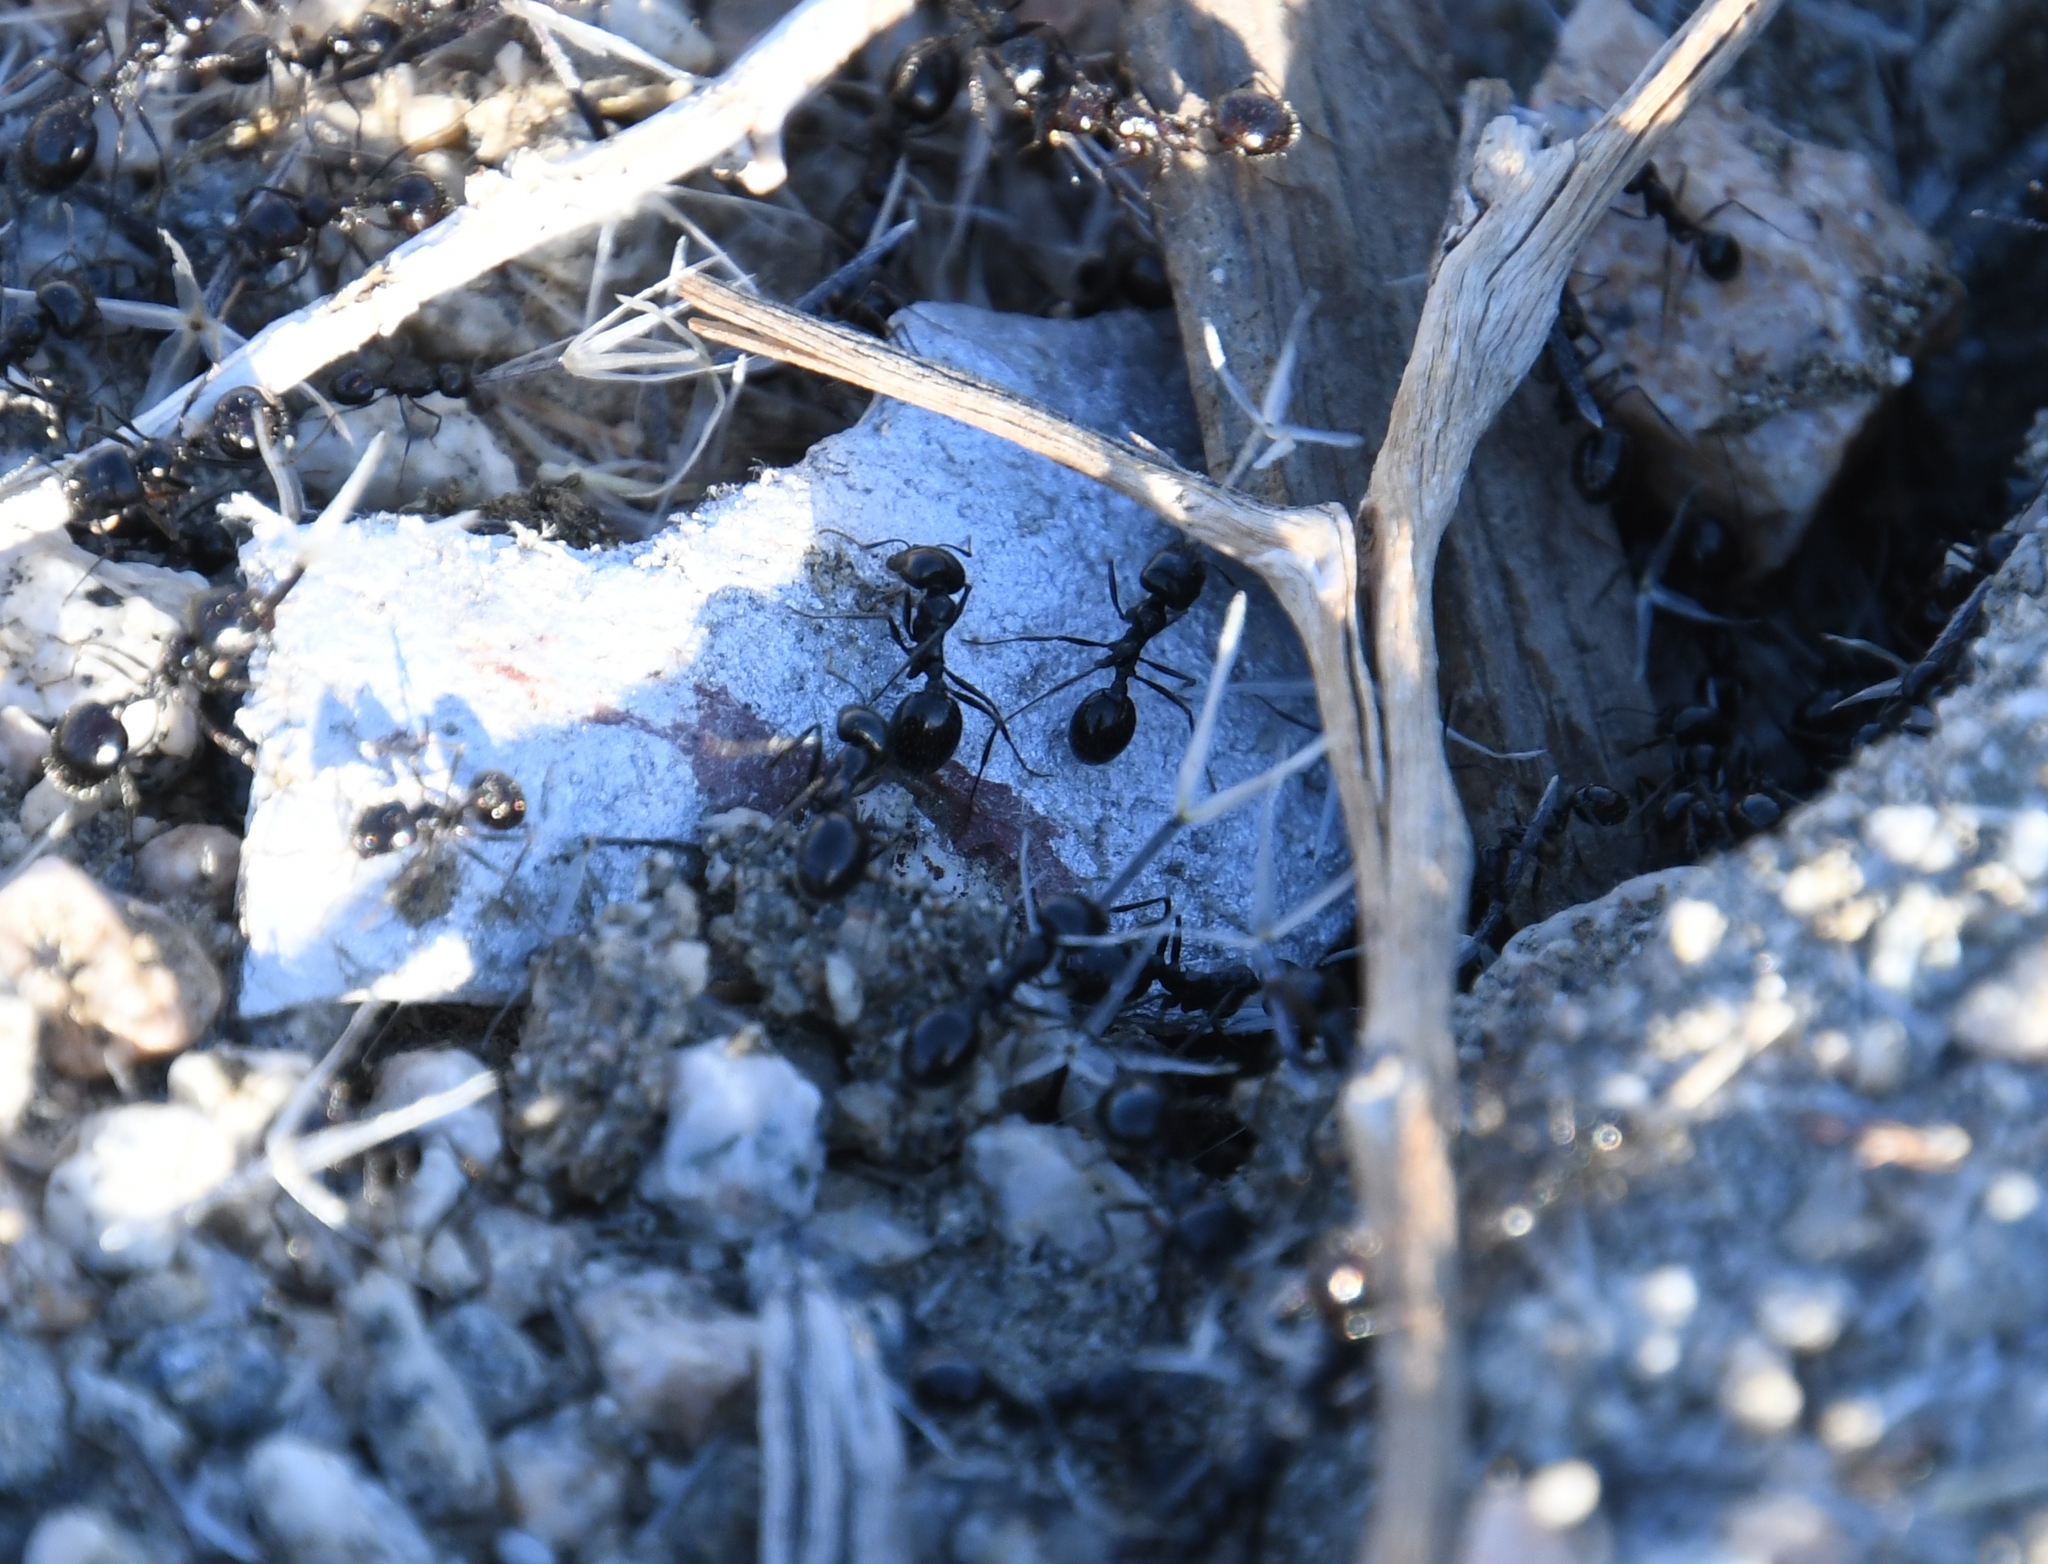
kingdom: Animalia
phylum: Arthropoda
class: Insecta
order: Hymenoptera
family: Formicidae
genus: Messor
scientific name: Messor pergandei
